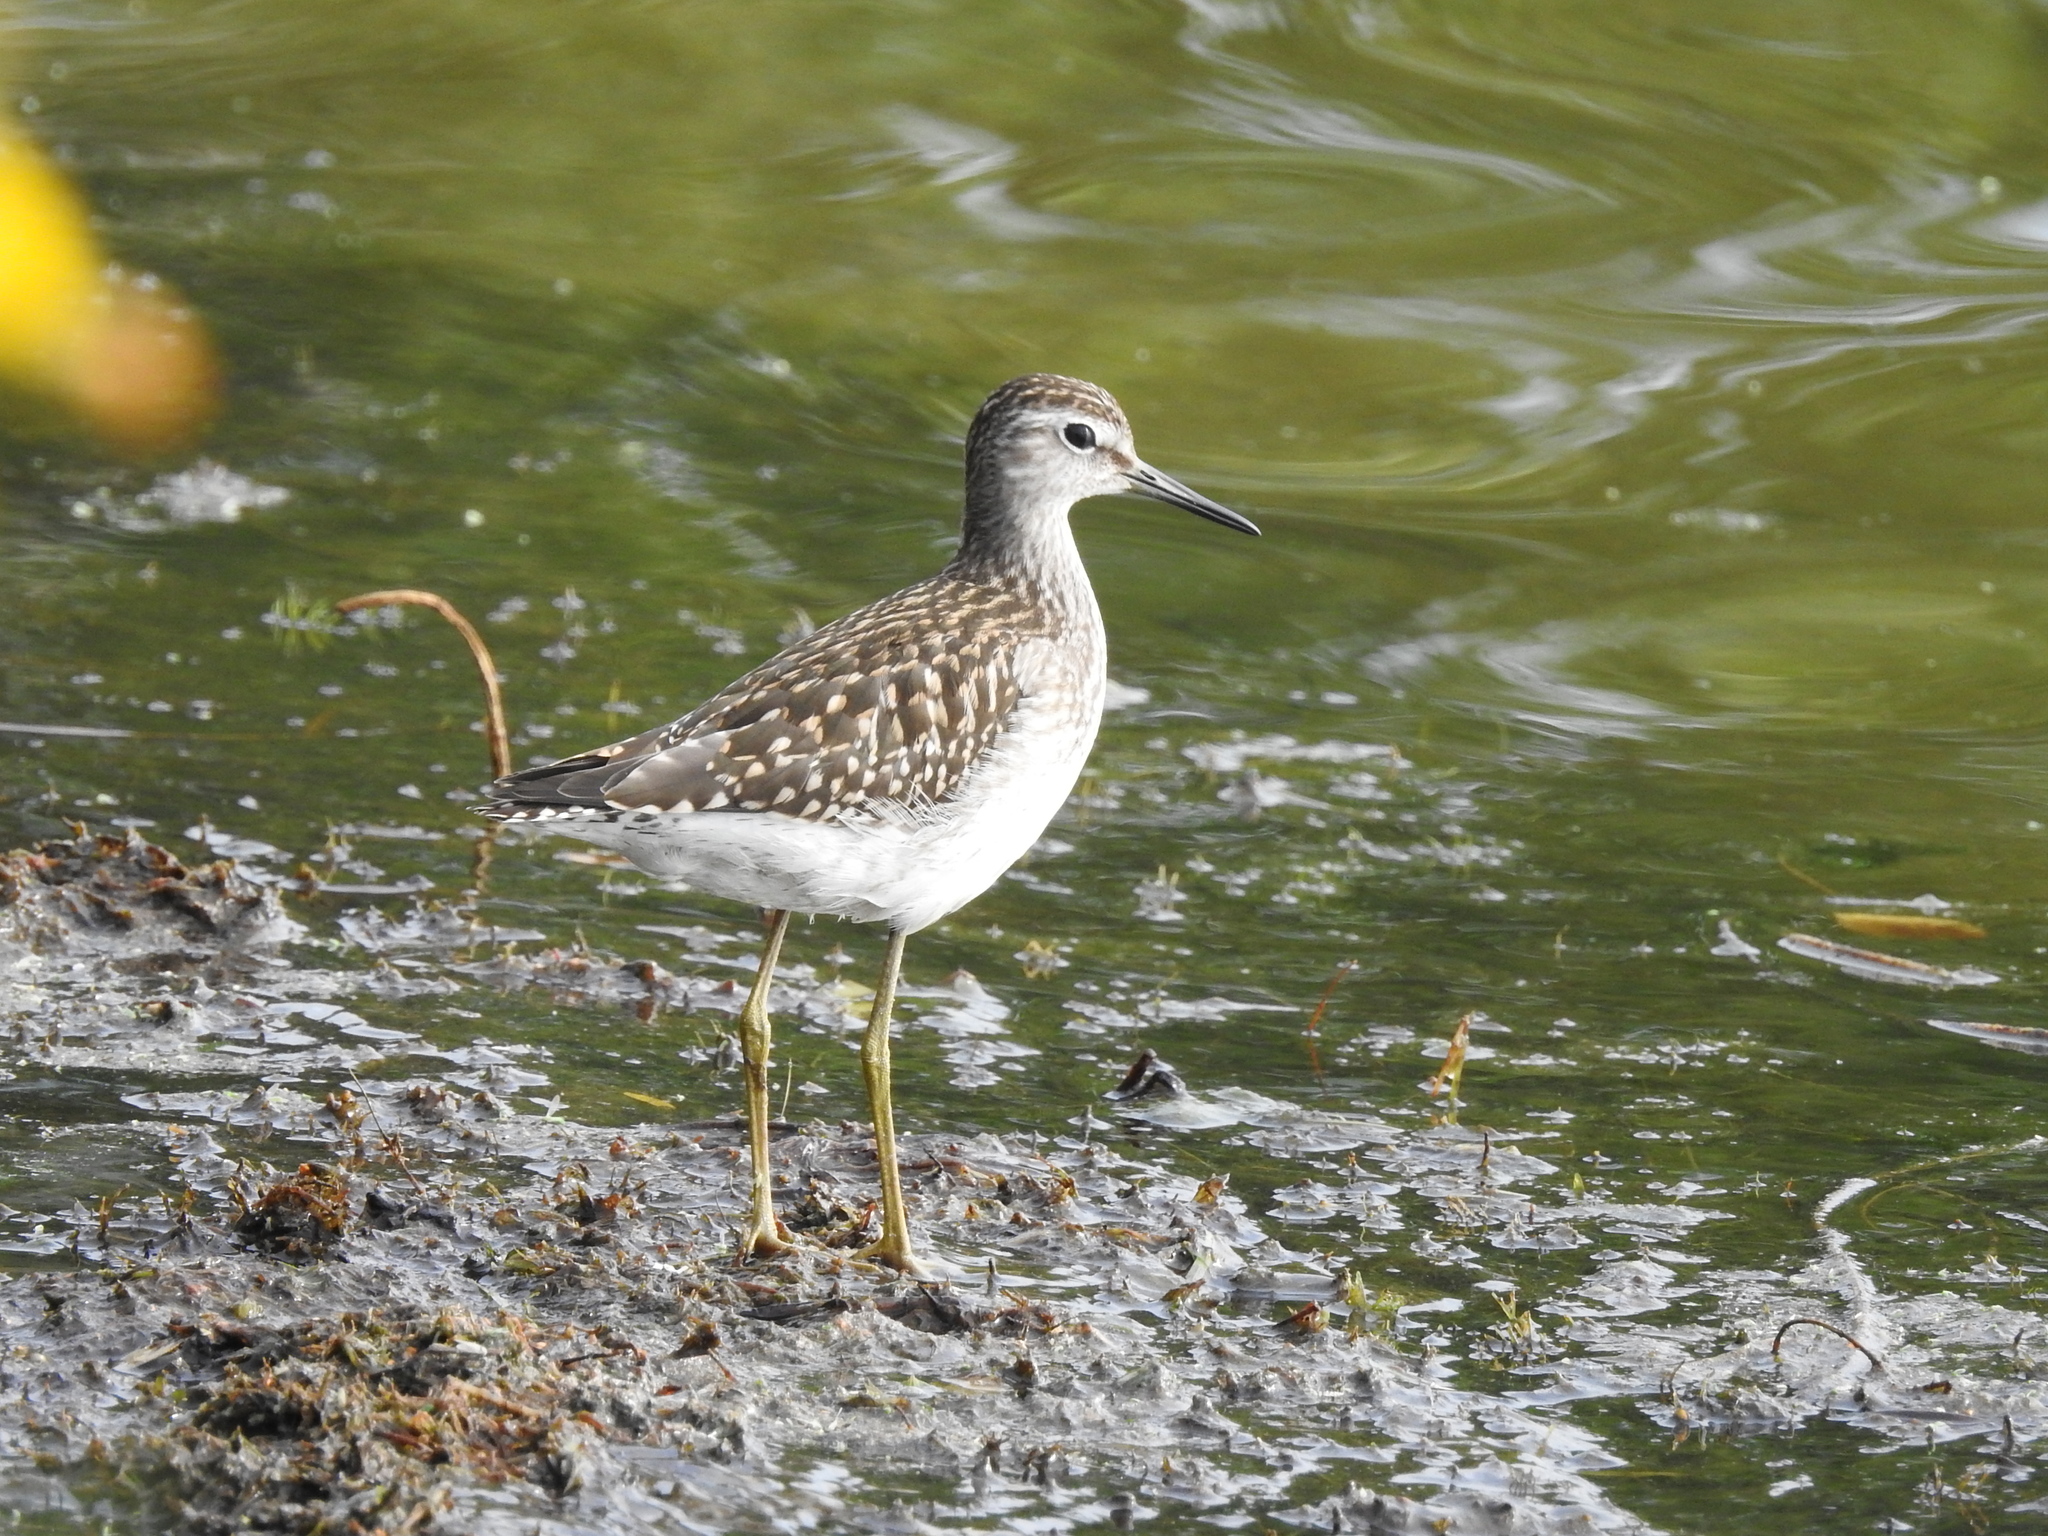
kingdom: Animalia
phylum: Chordata
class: Aves
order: Charadriiformes
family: Scolopacidae
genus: Tringa
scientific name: Tringa glareola
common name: Wood sandpiper
